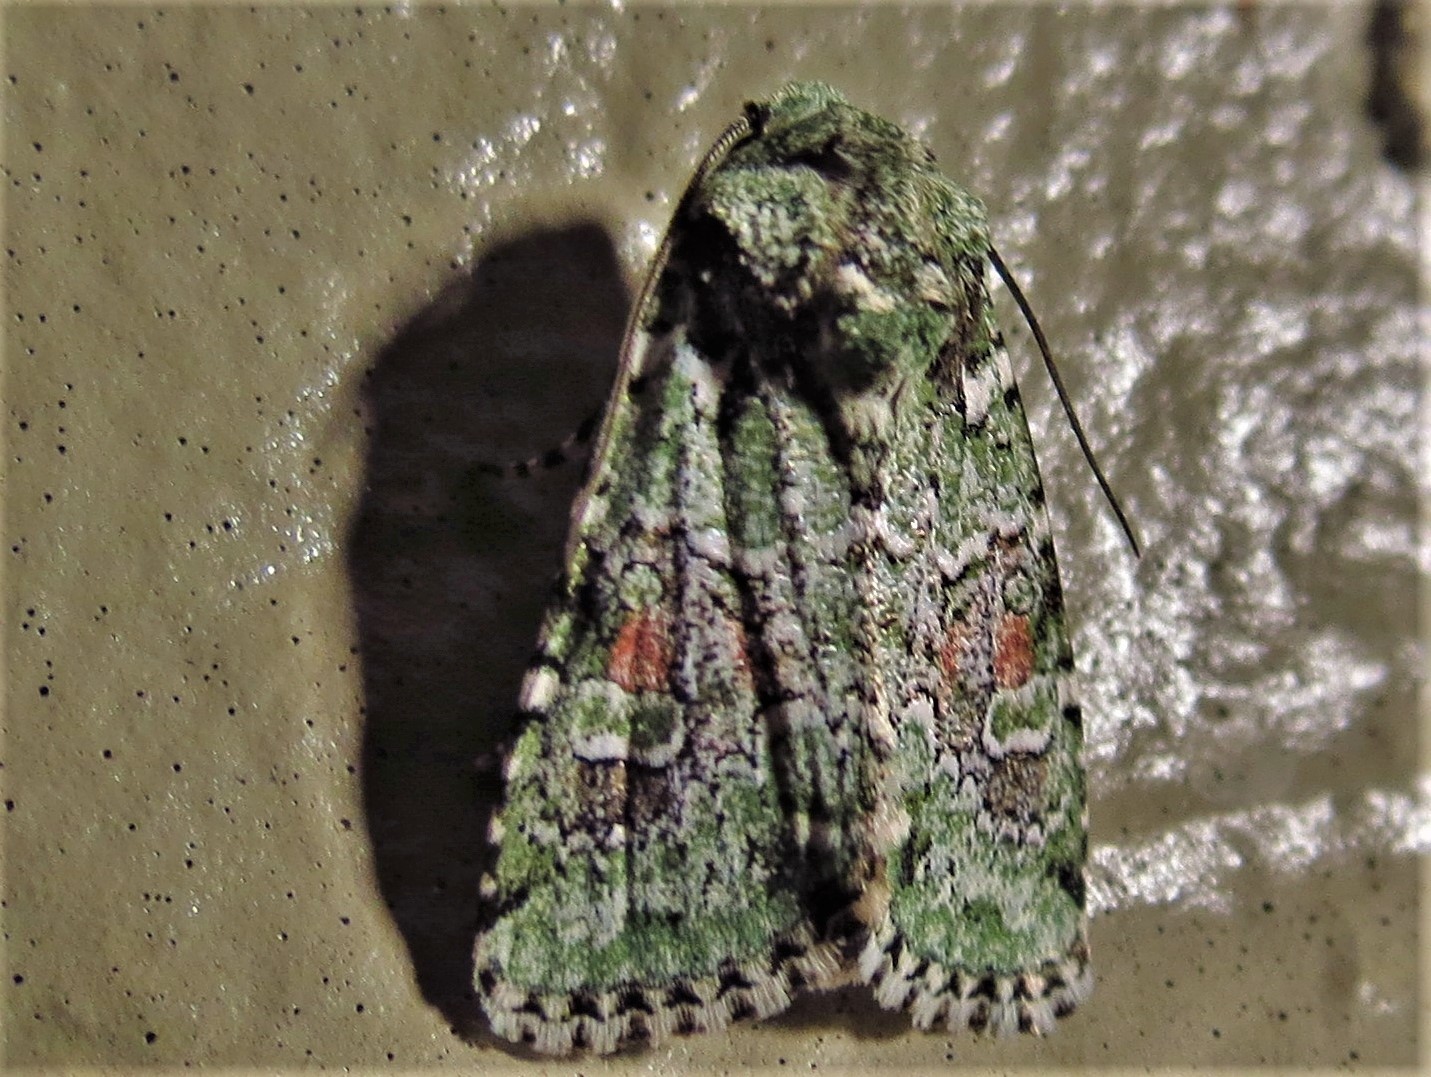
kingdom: Animalia
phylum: Arthropoda
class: Insecta
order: Lepidoptera
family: Noctuidae
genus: Lacinipolia
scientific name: Lacinipolia laudabilis
